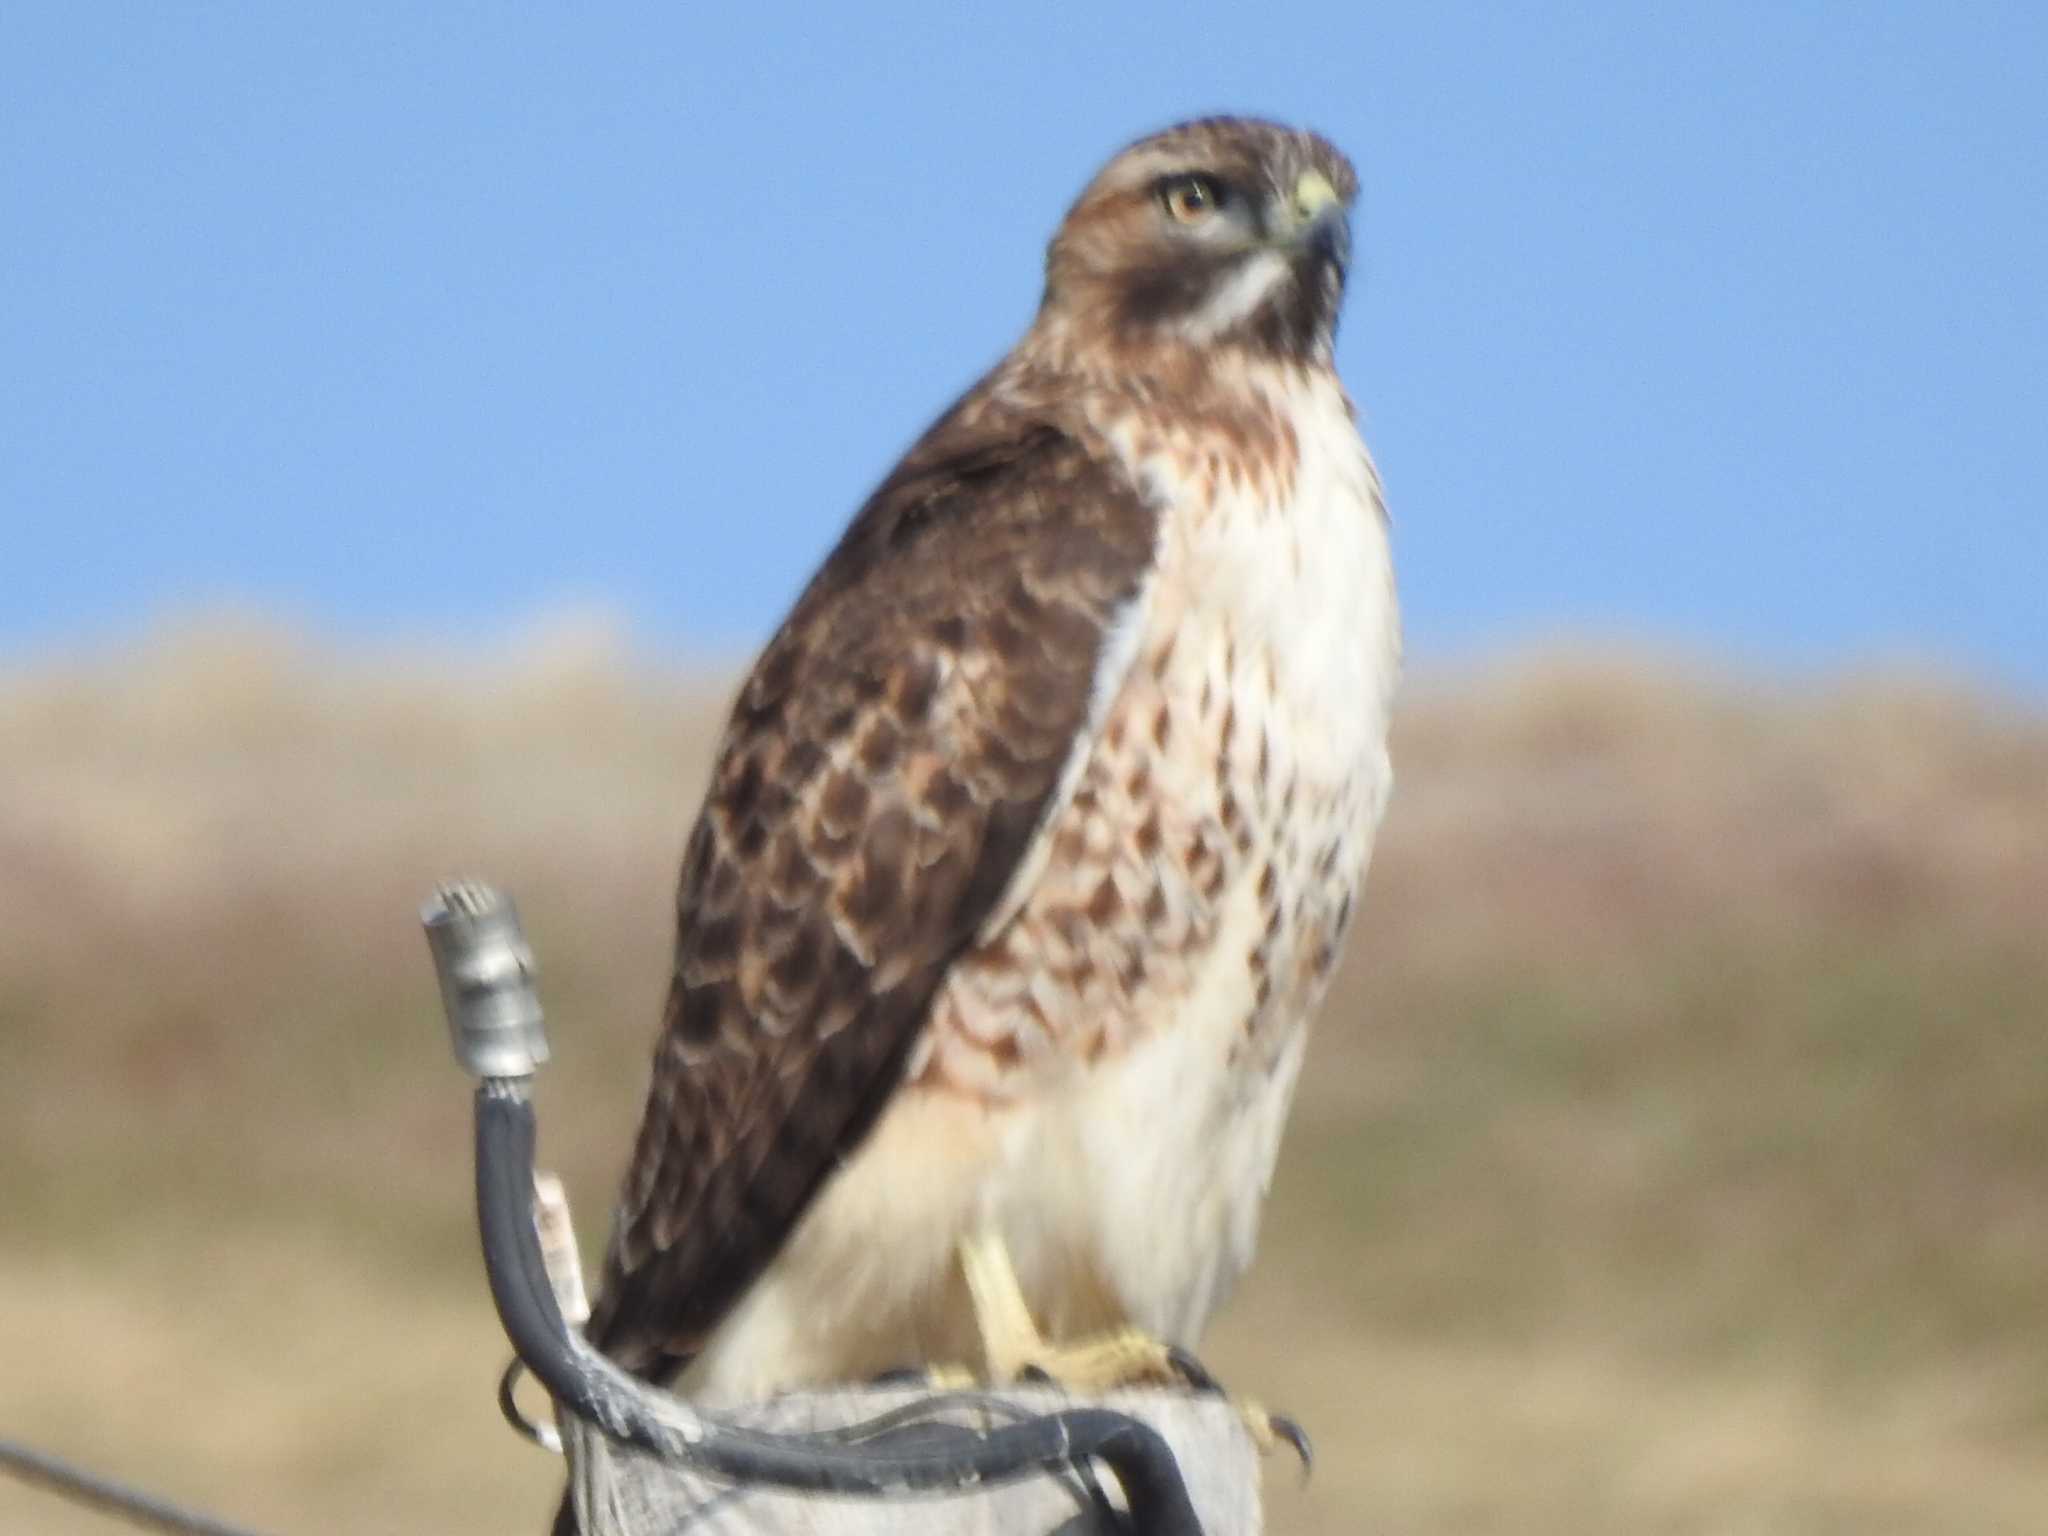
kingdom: Animalia
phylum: Chordata
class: Aves
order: Accipitriformes
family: Accipitridae
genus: Buteo
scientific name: Buteo jamaicensis
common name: Red-tailed hawk
